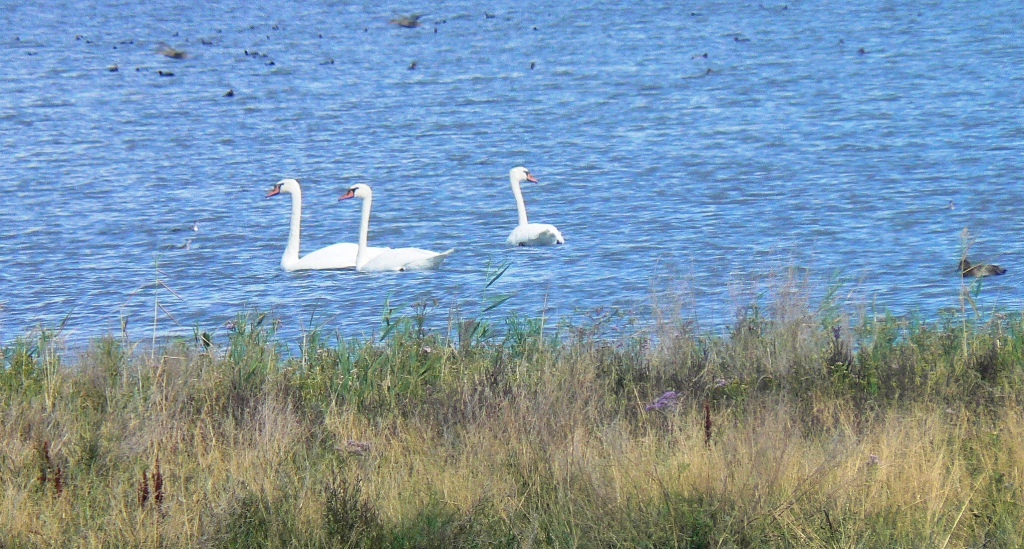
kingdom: Animalia
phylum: Chordata
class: Aves
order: Anseriformes
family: Anatidae
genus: Cygnus
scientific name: Cygnus olor
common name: Mute swan
